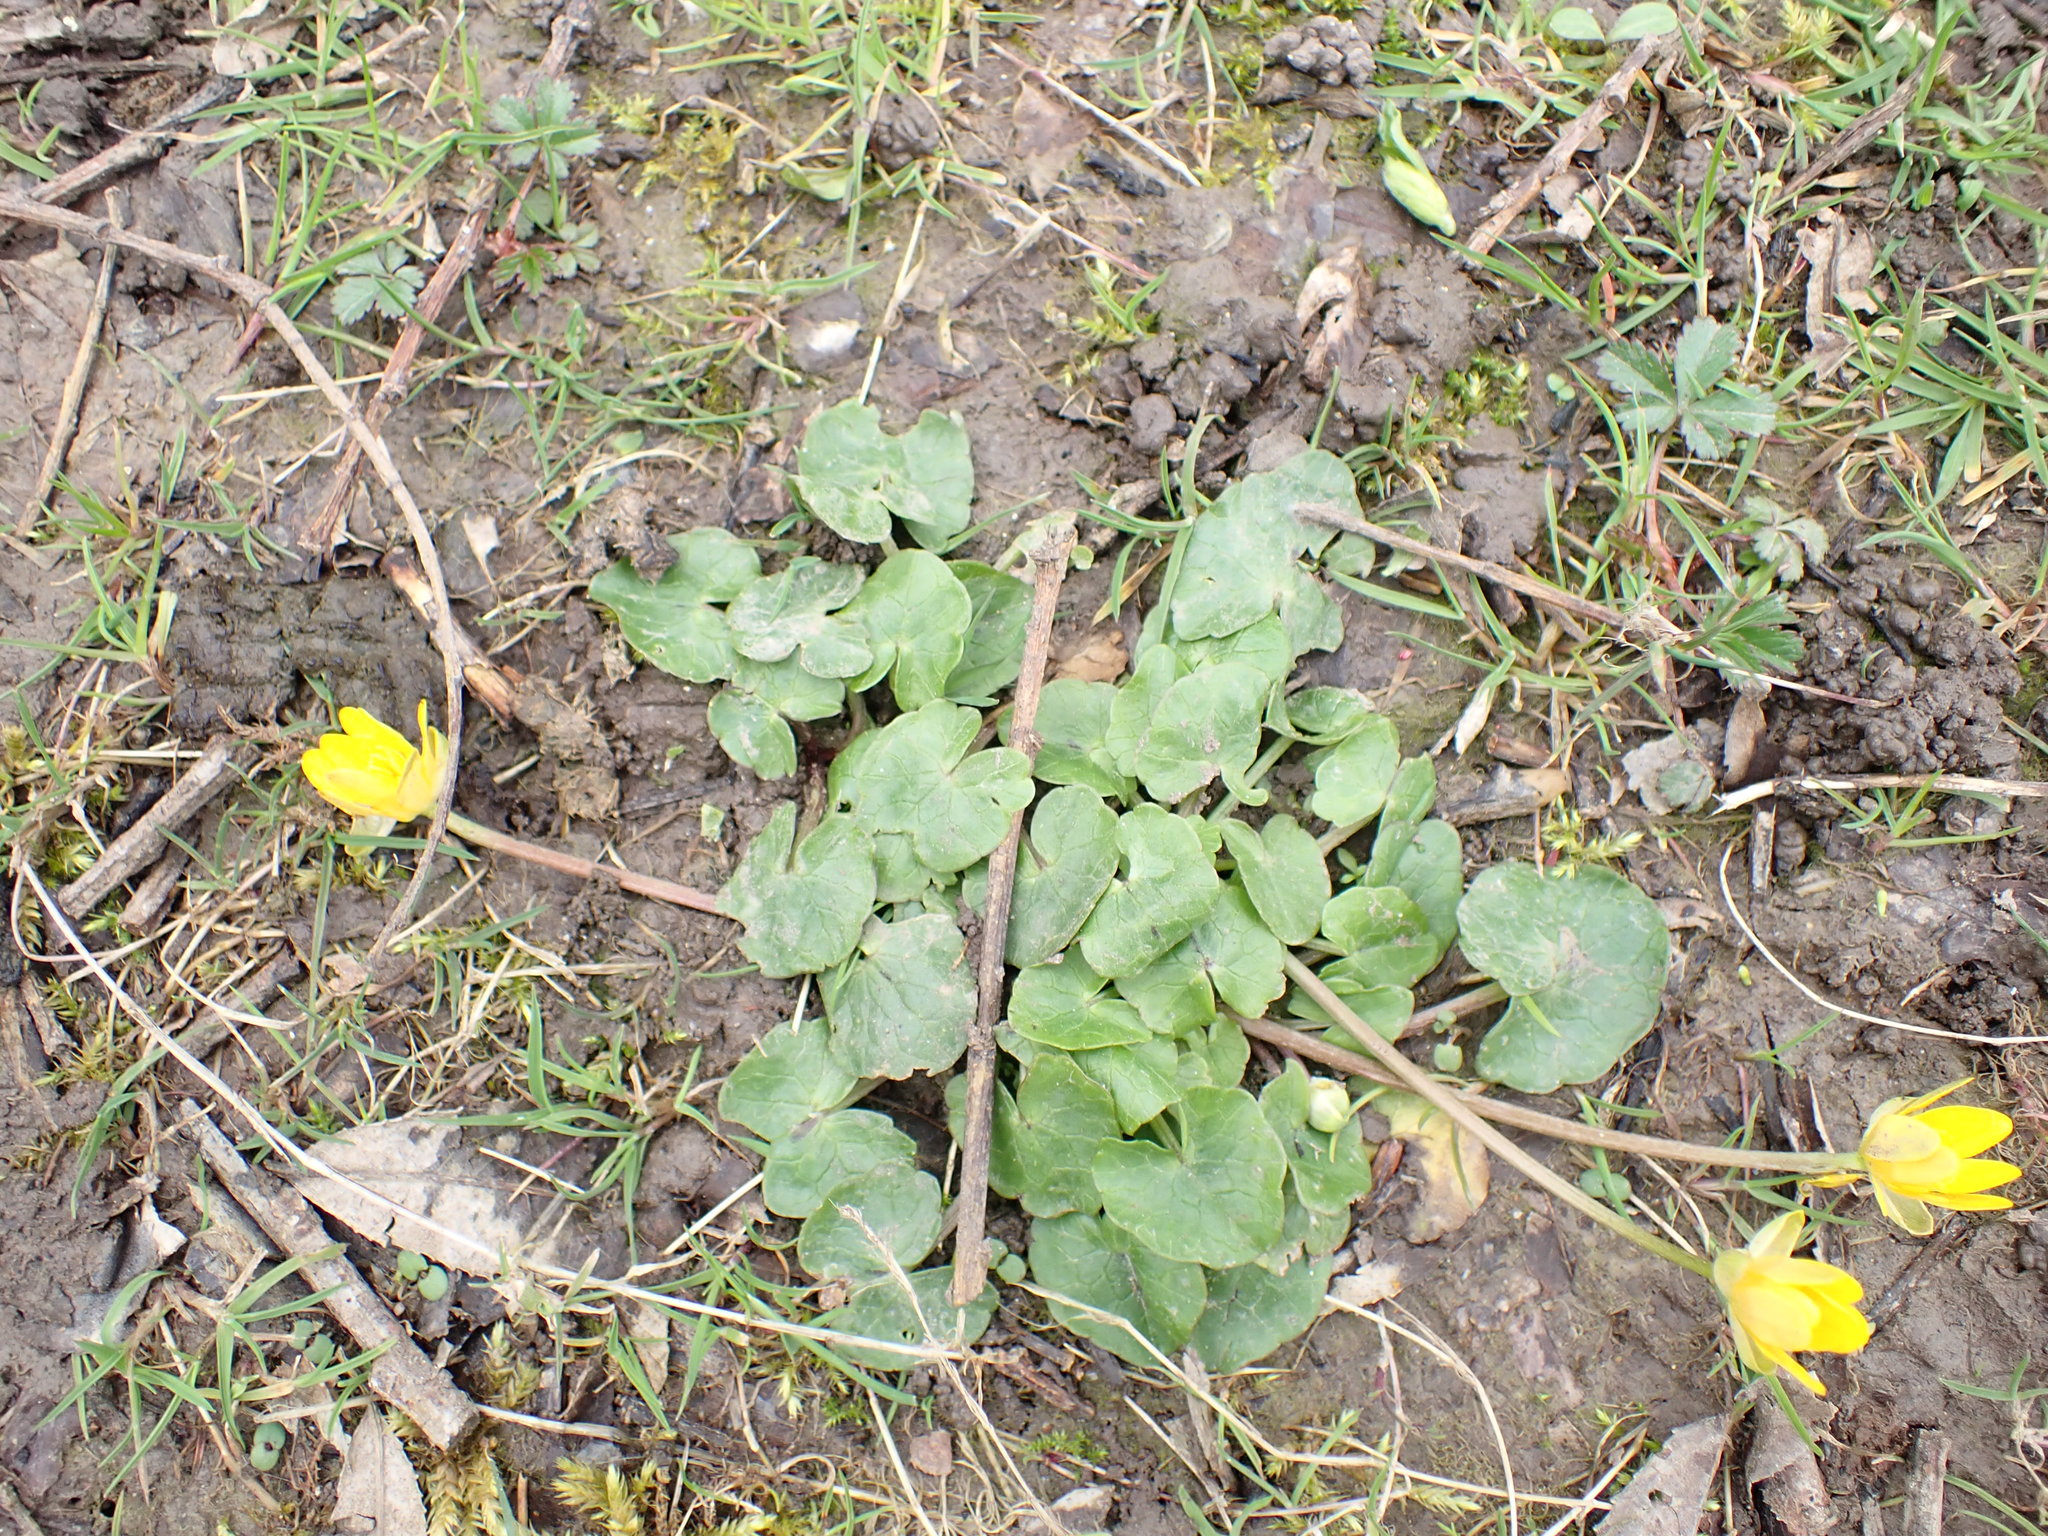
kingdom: Plantae
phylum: Tracheophyta
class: Magnoliopsida
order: Ranunculales
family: Ranunculaceae
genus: Ficaria
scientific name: Ficaria verna
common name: Lesser celandine
